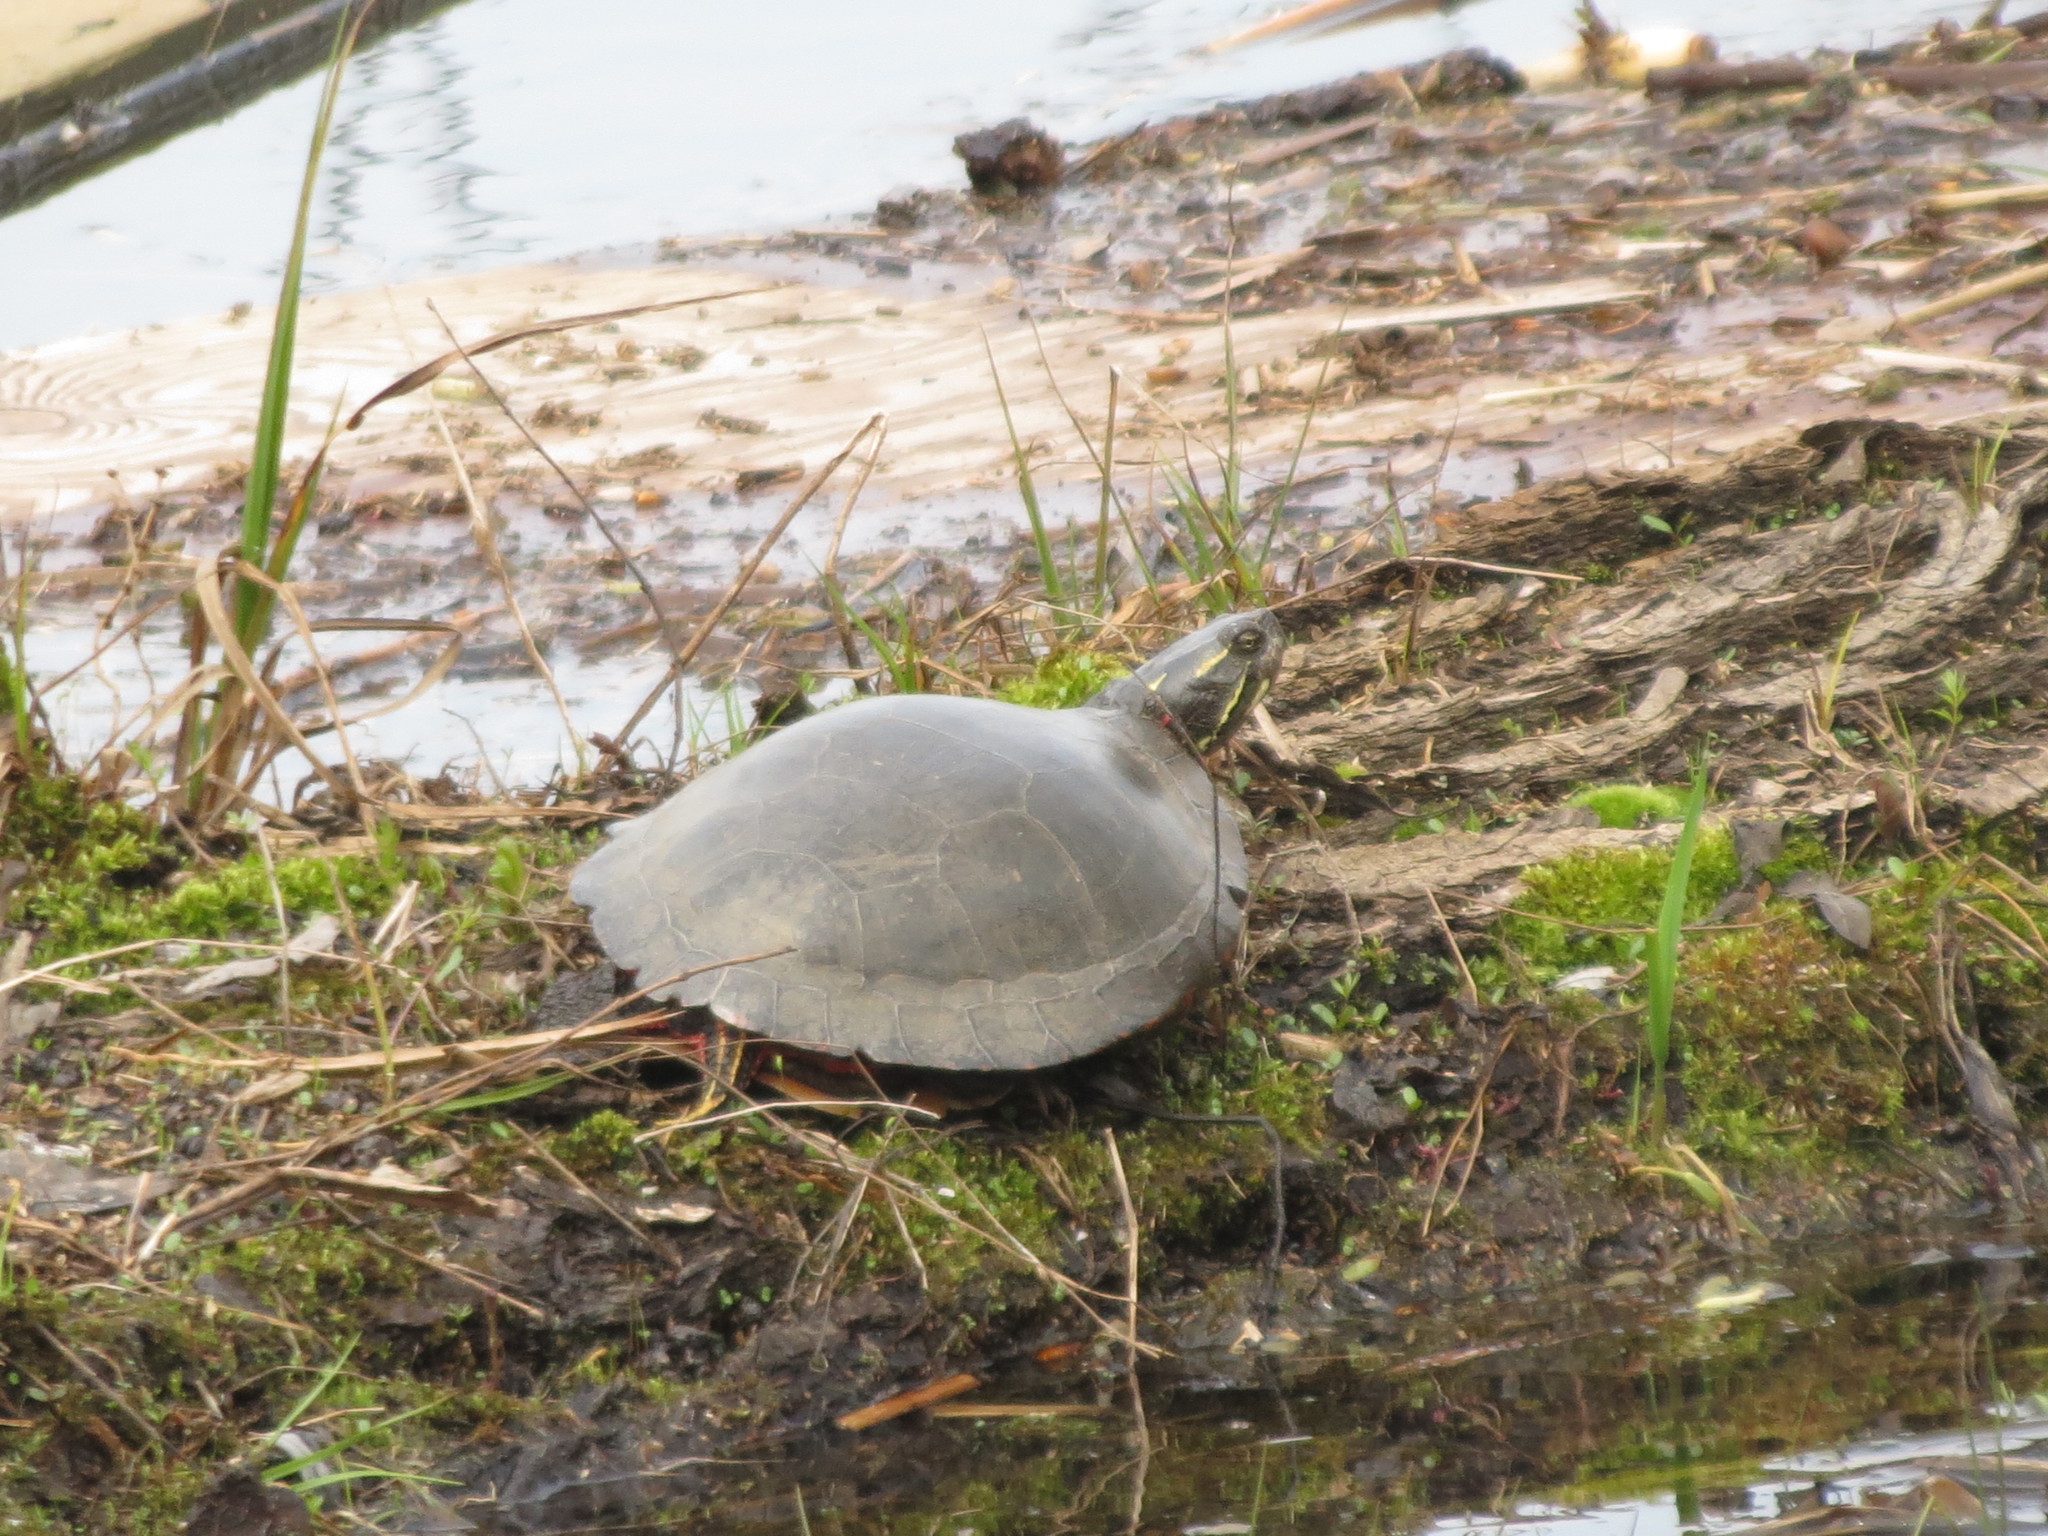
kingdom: Animalia
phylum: Chordata
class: Testudines
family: Emydidae
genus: Chrysemys
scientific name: Chrysemys picta
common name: Painted turtle
